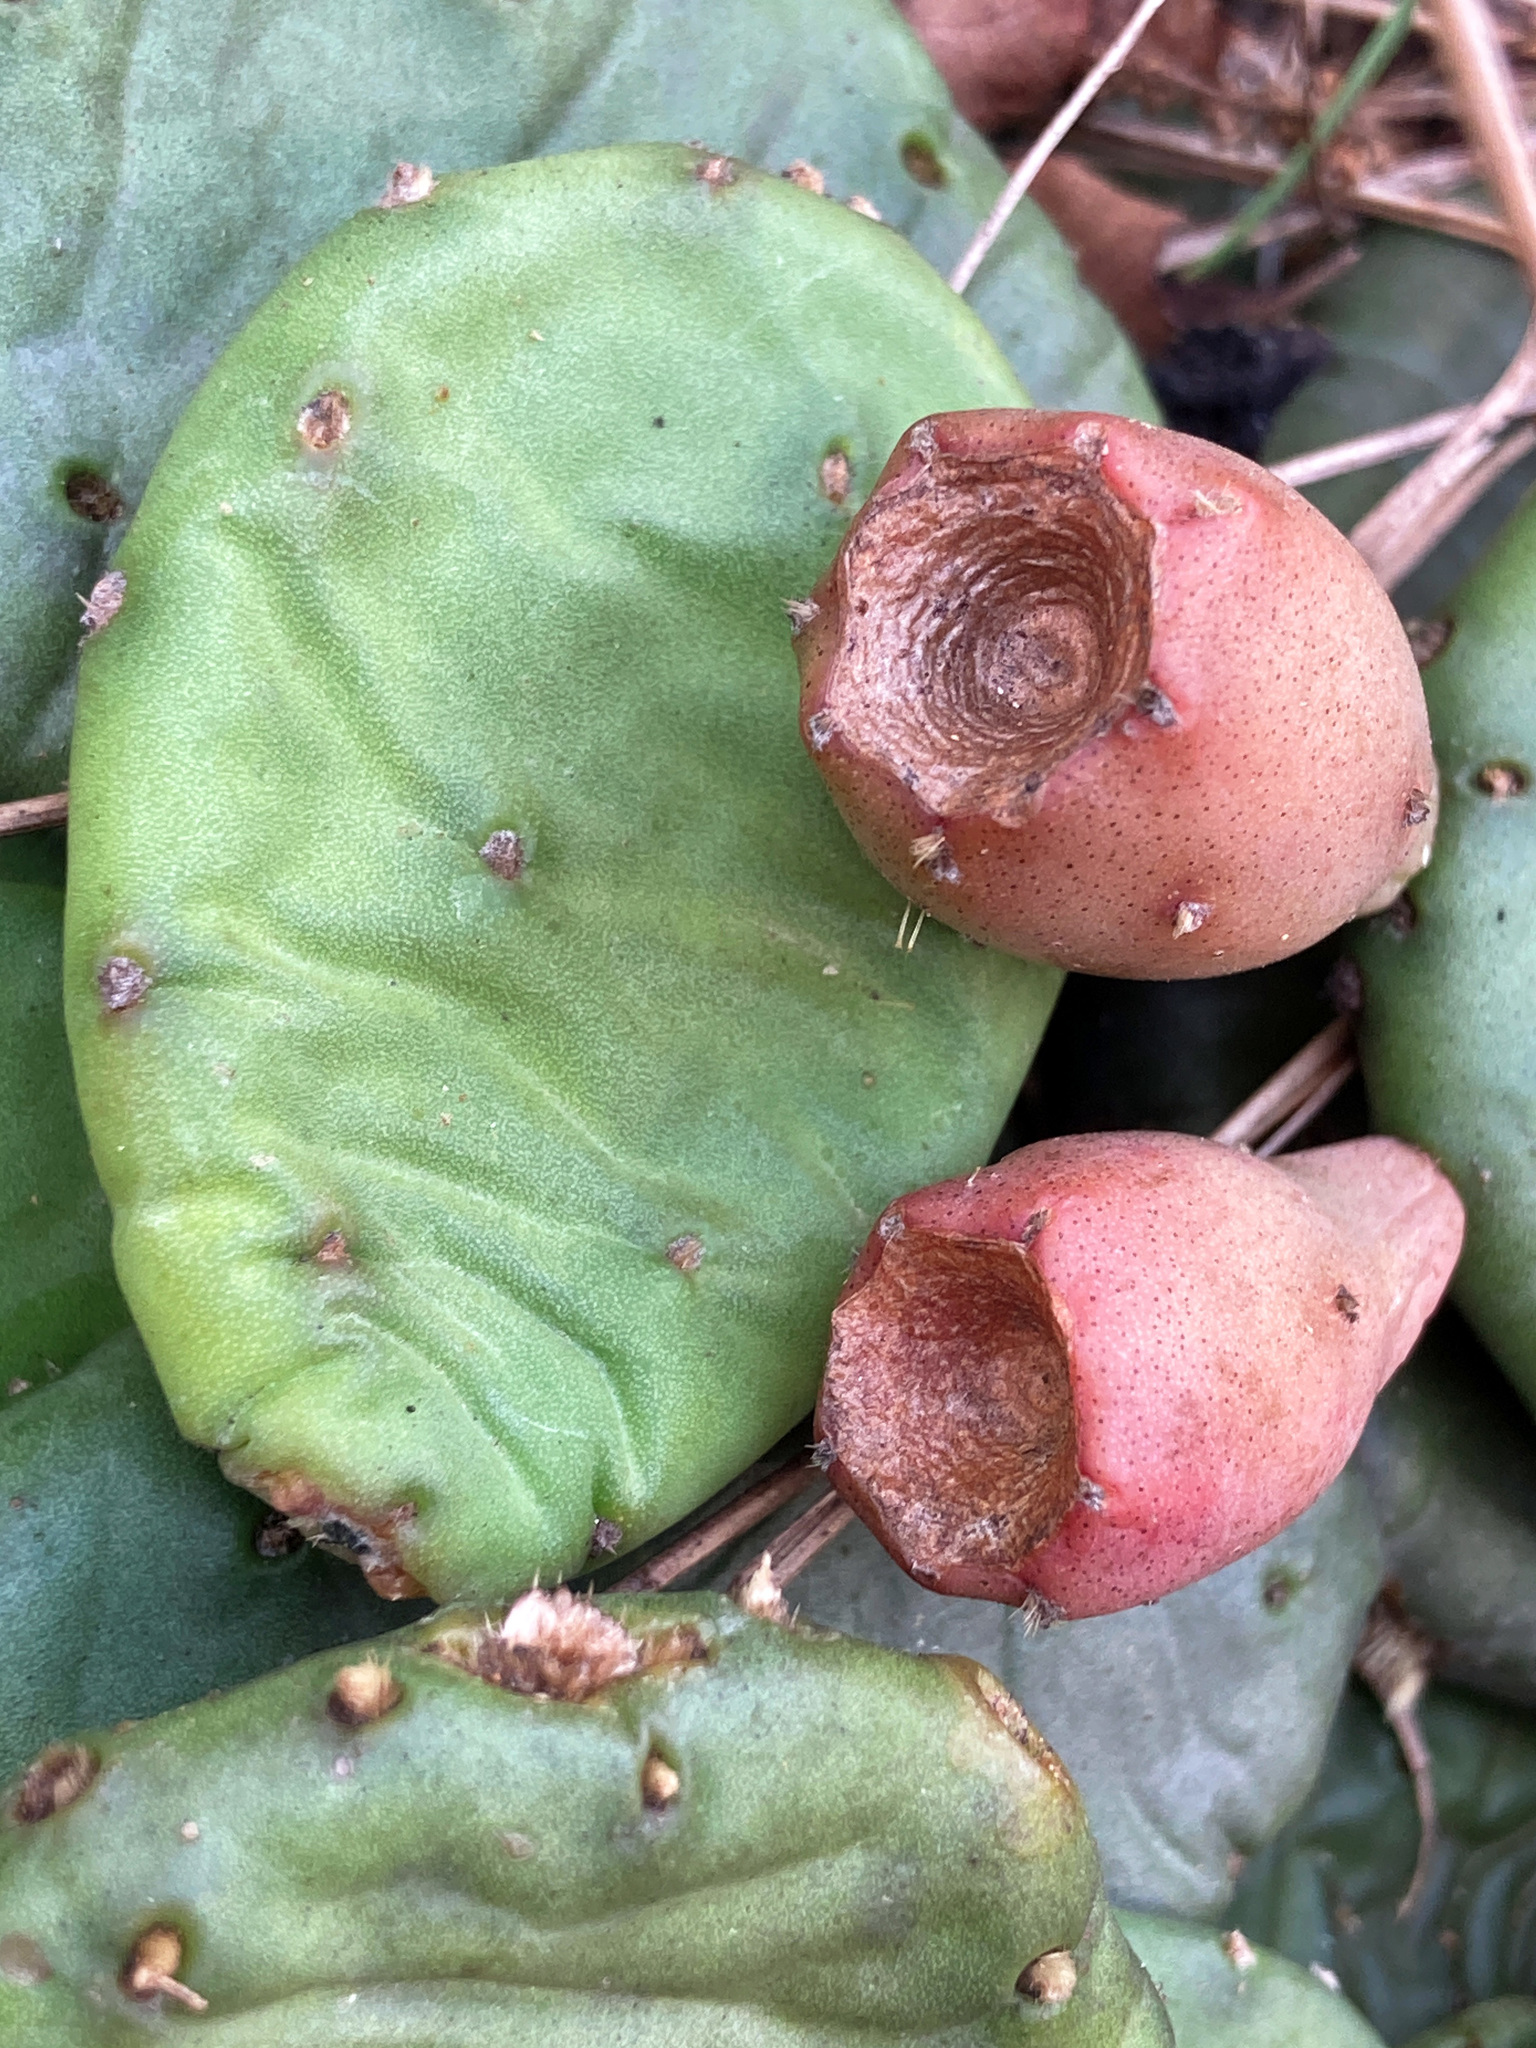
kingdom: Plantae
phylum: Tracheophyta
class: Magnoliopsida
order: Caryophyllales
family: Cactaceae
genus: Opuntia
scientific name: Opuntia humifusa
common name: Eastern prickly-pear
